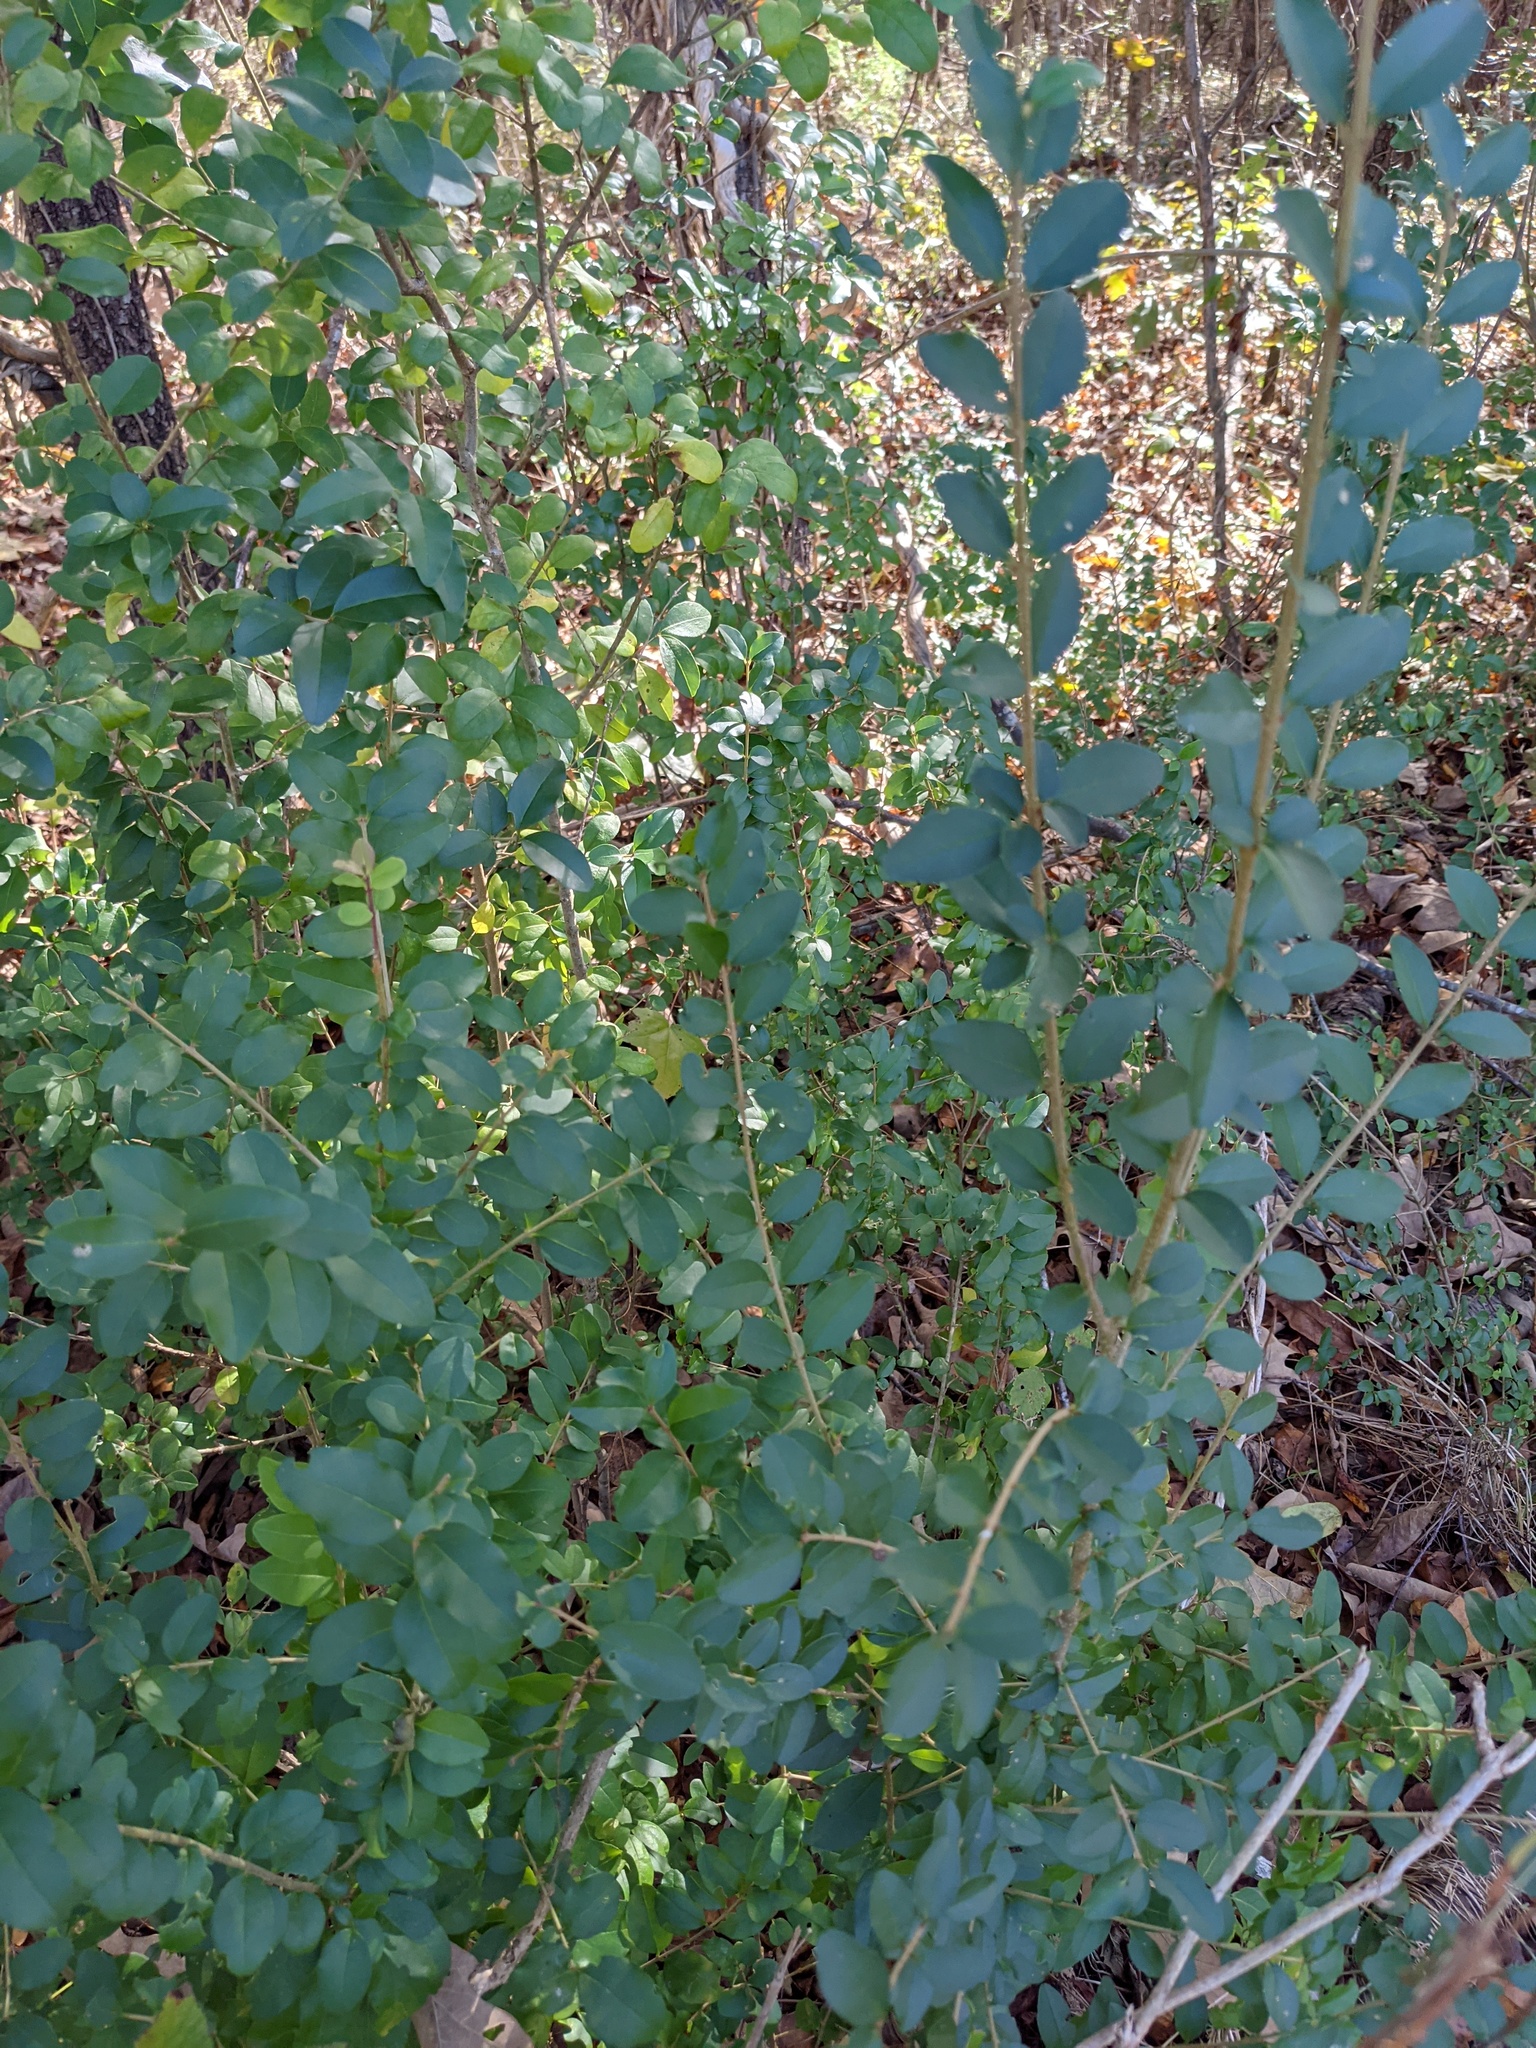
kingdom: Plantae
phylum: Tracheophyta
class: Magnoliopsida
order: Lamiales
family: Oleaceae
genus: Ligustrum
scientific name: Ligustrum sinense
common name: Chinese privet
